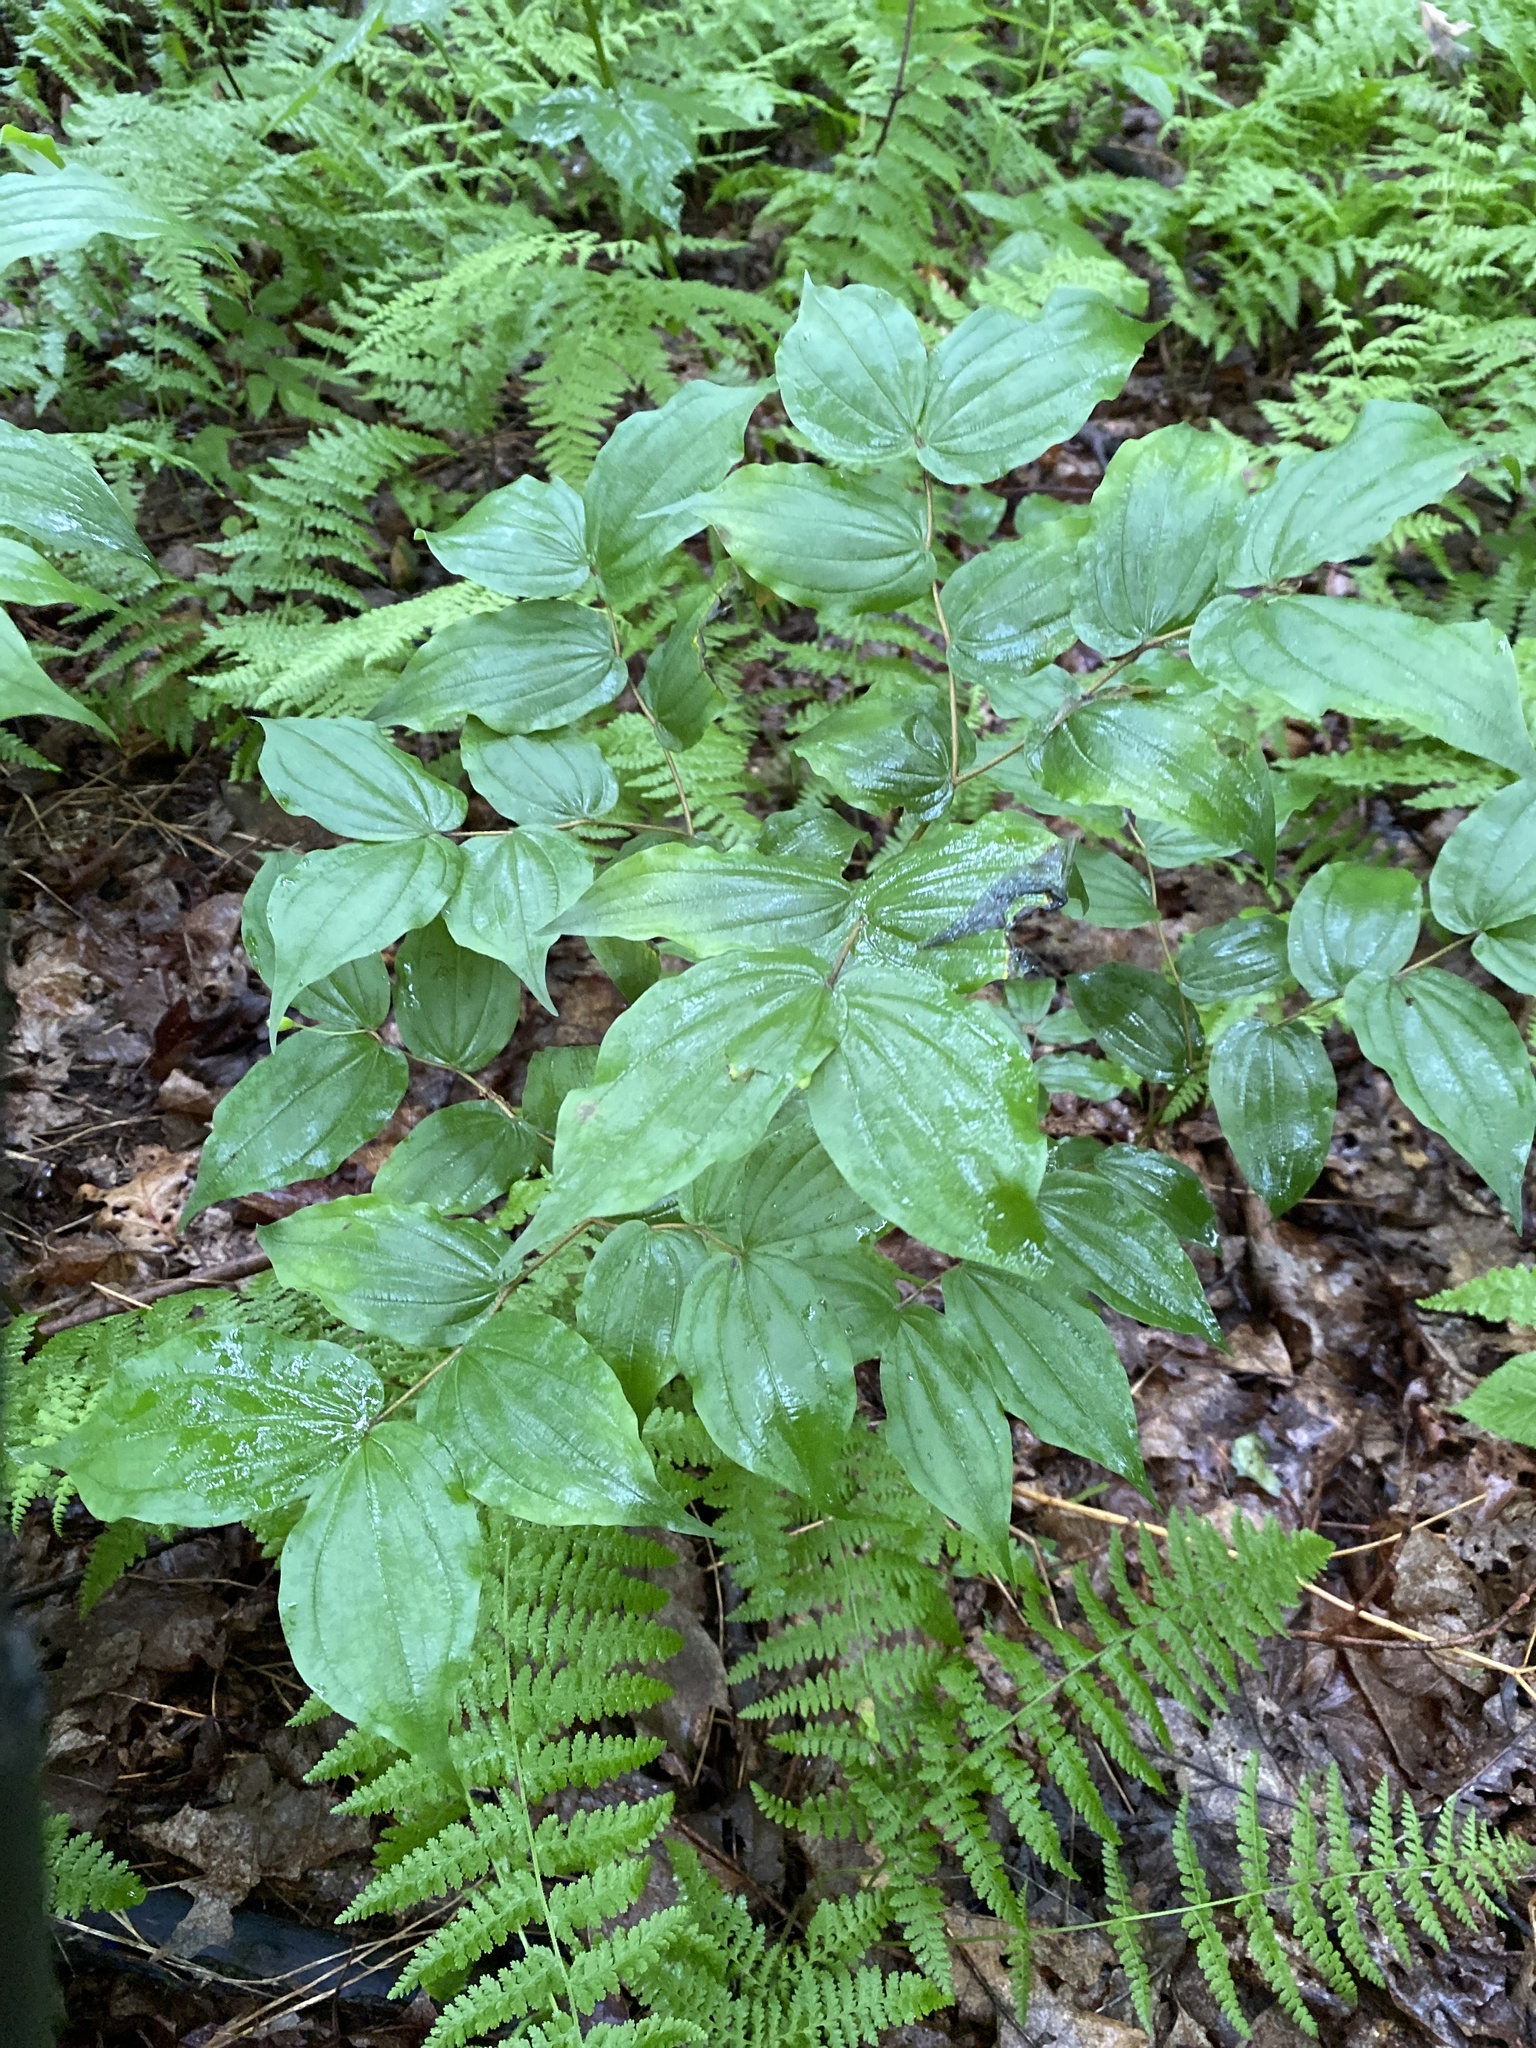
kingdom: Plantae
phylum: Tracheophyta
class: Liliopsida
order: Liliales
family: Liliaceae
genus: Prosartes
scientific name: Prosartes lanuginosa
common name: Hairy mandarin
